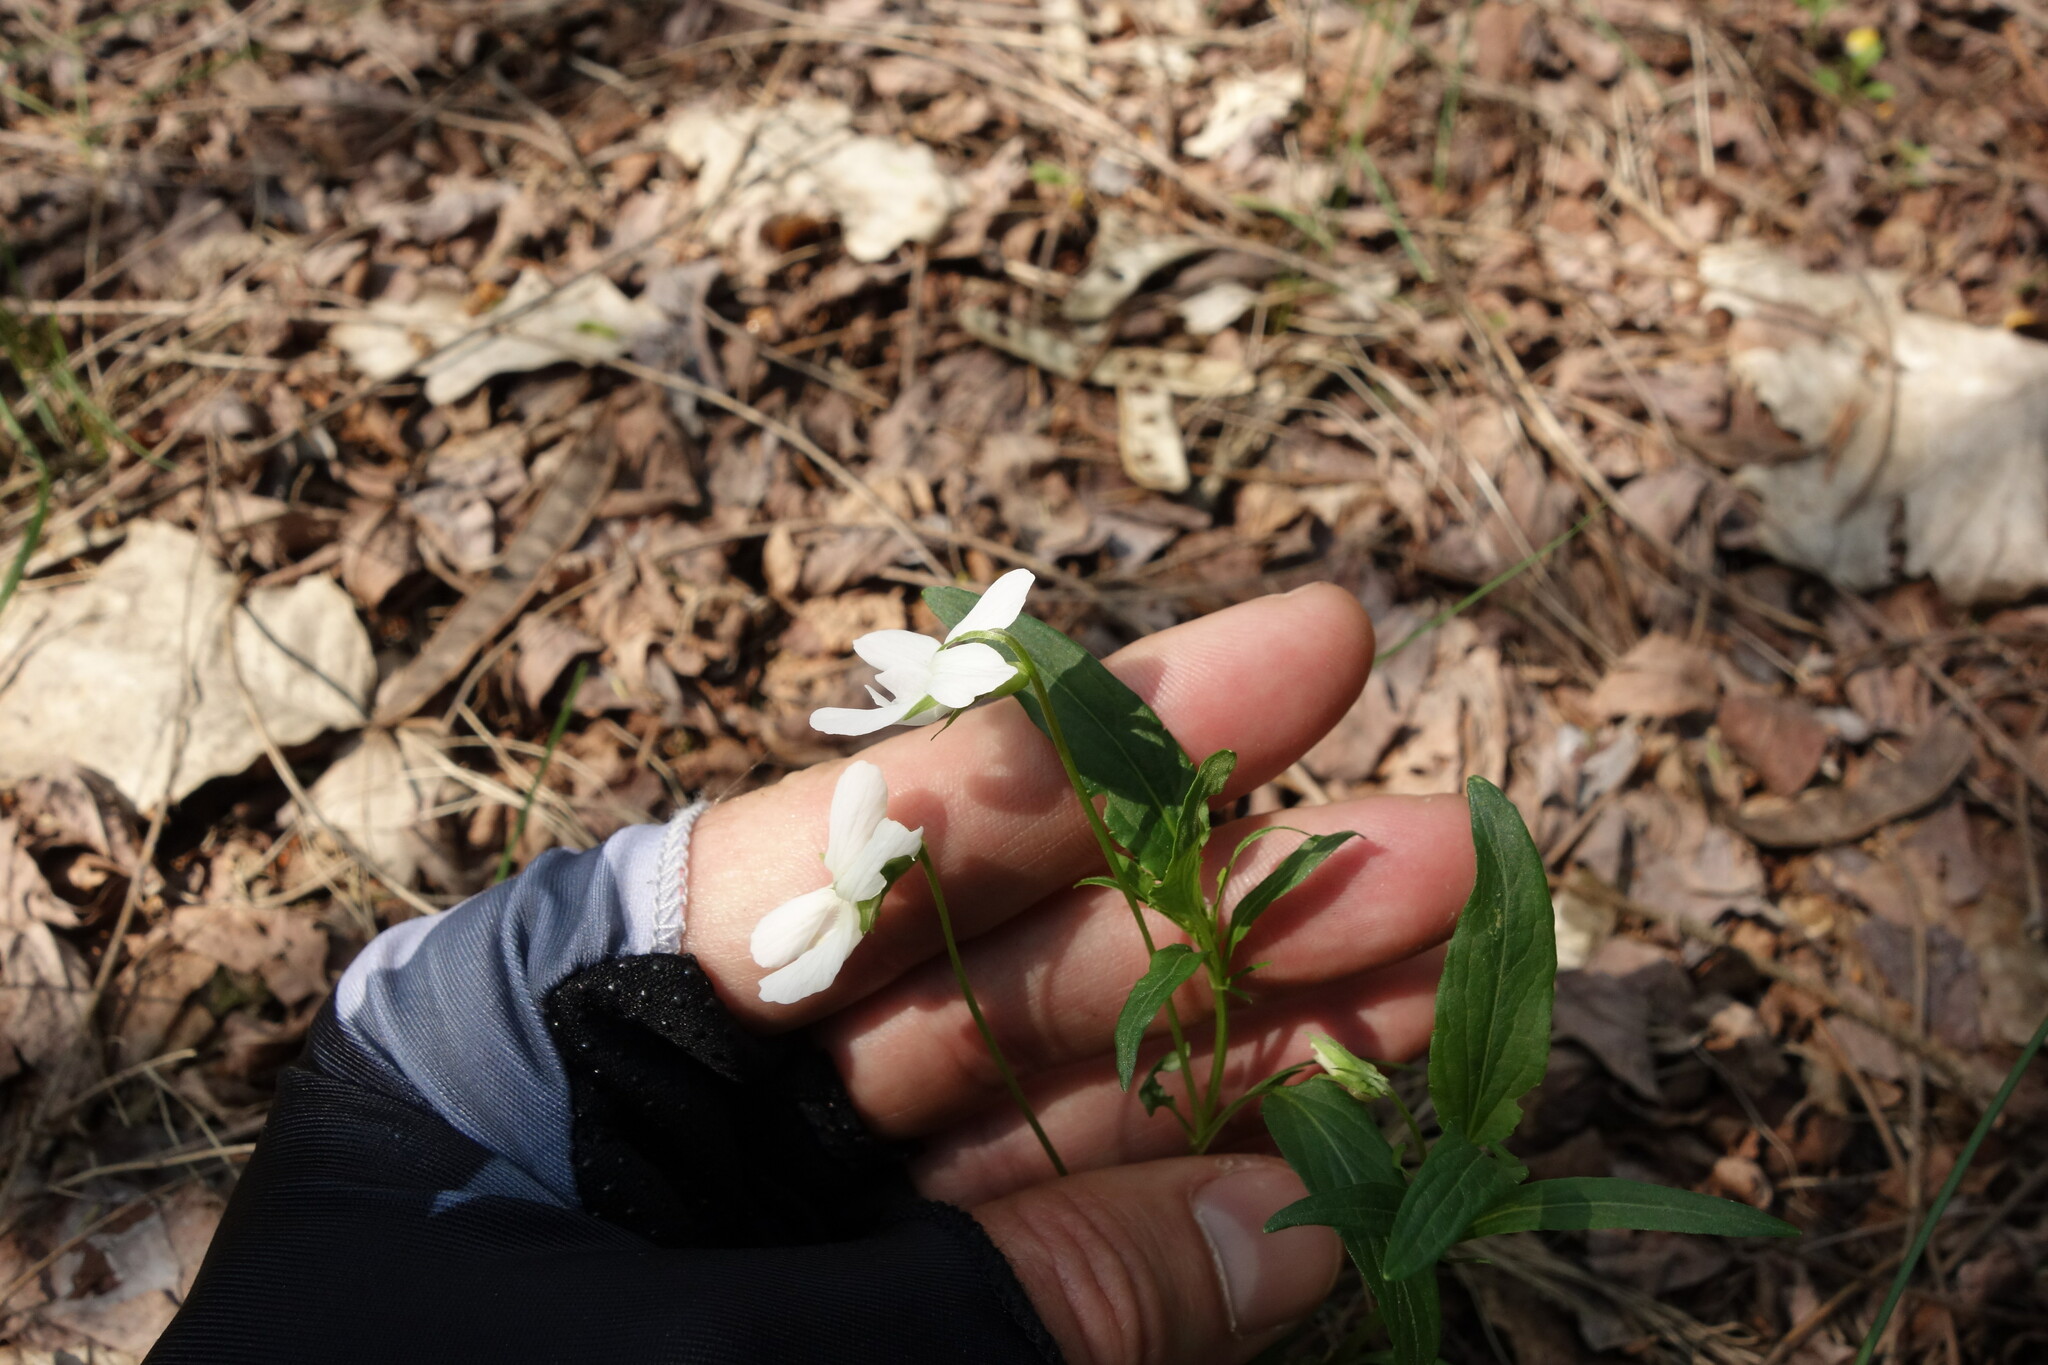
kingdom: Plantae
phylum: Tracheophyta
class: Magnoliopsida
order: Malpighiales
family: Violaceae
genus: Viola
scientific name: Viola pumila
